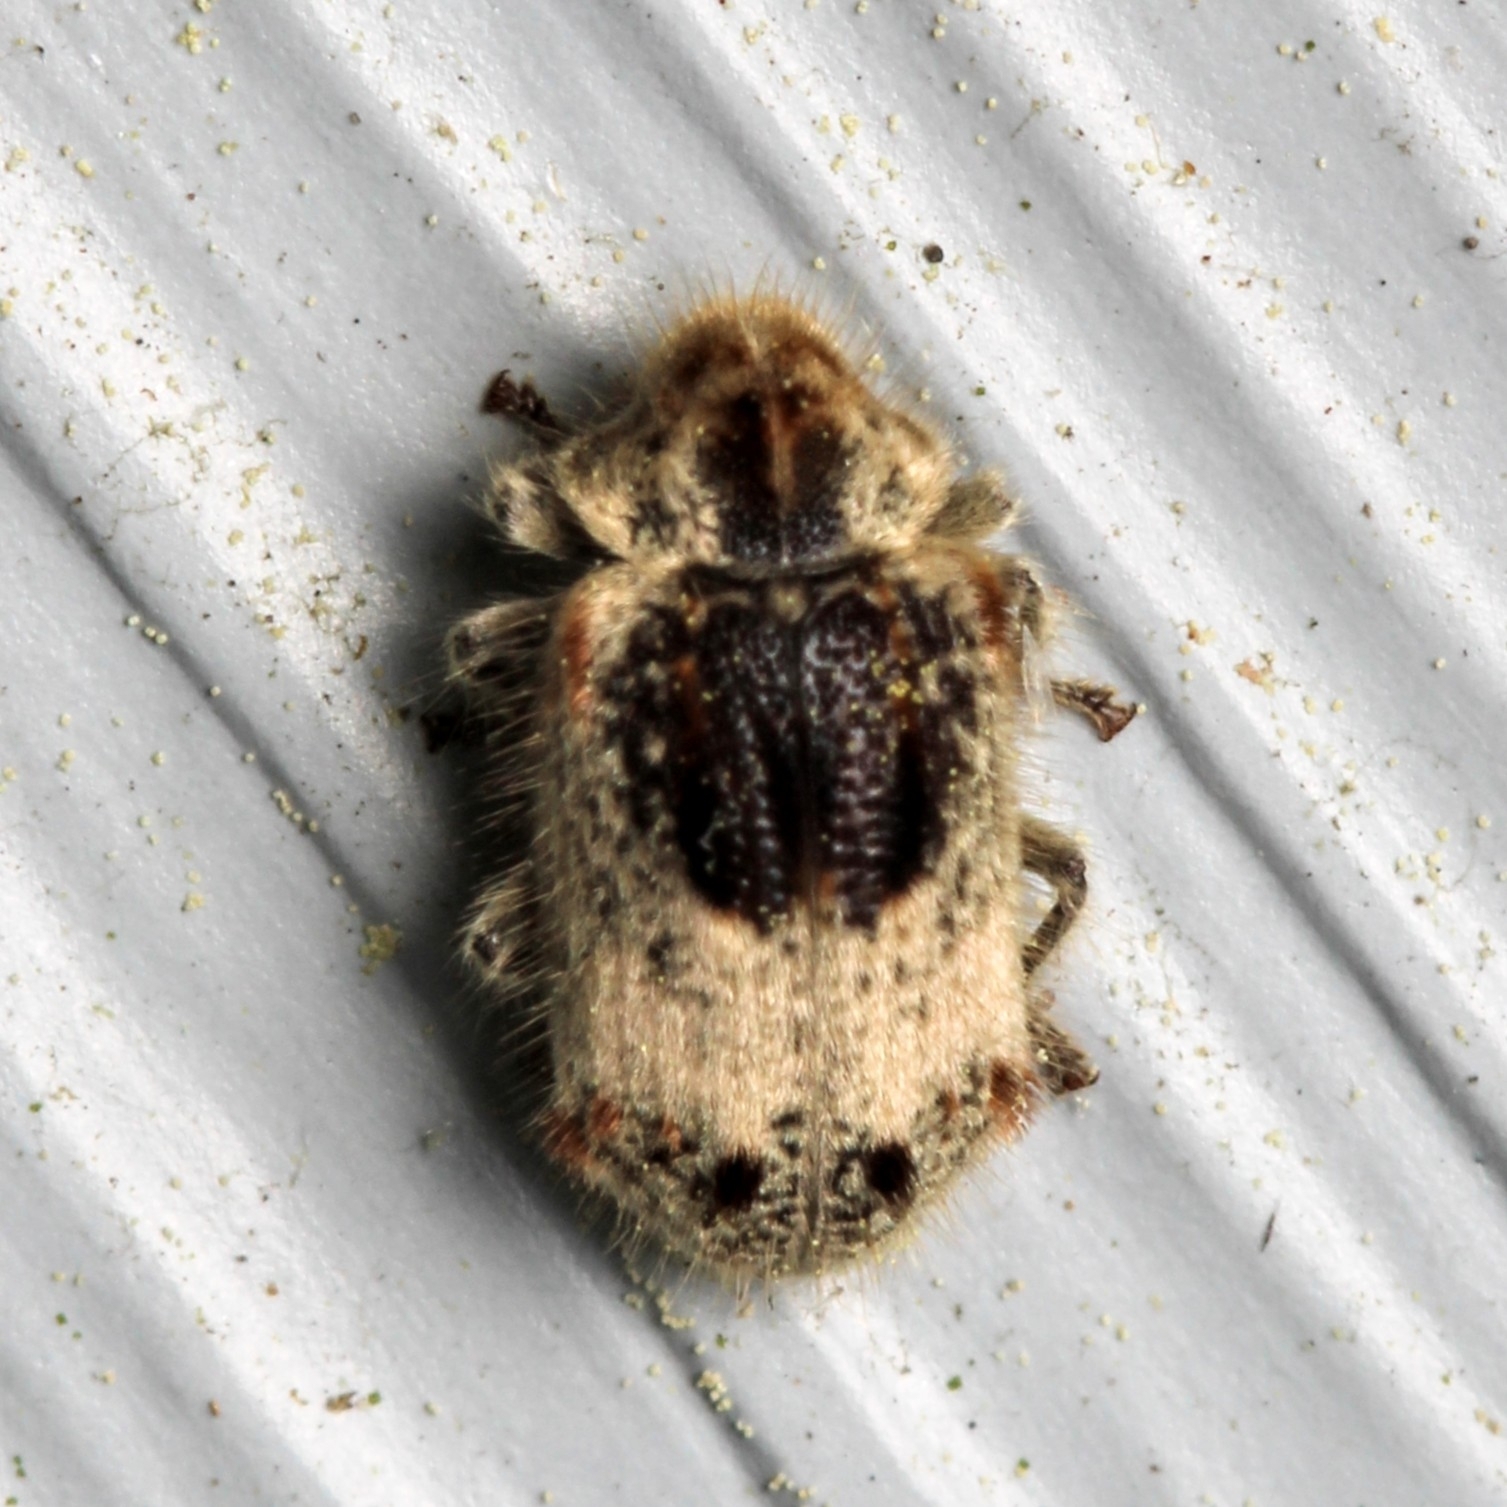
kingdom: Animalia
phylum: Arthropoda
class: Insecta
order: Coleoptera
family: Anobiidae
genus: Trichodesma
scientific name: Trichodesma gibbosa
